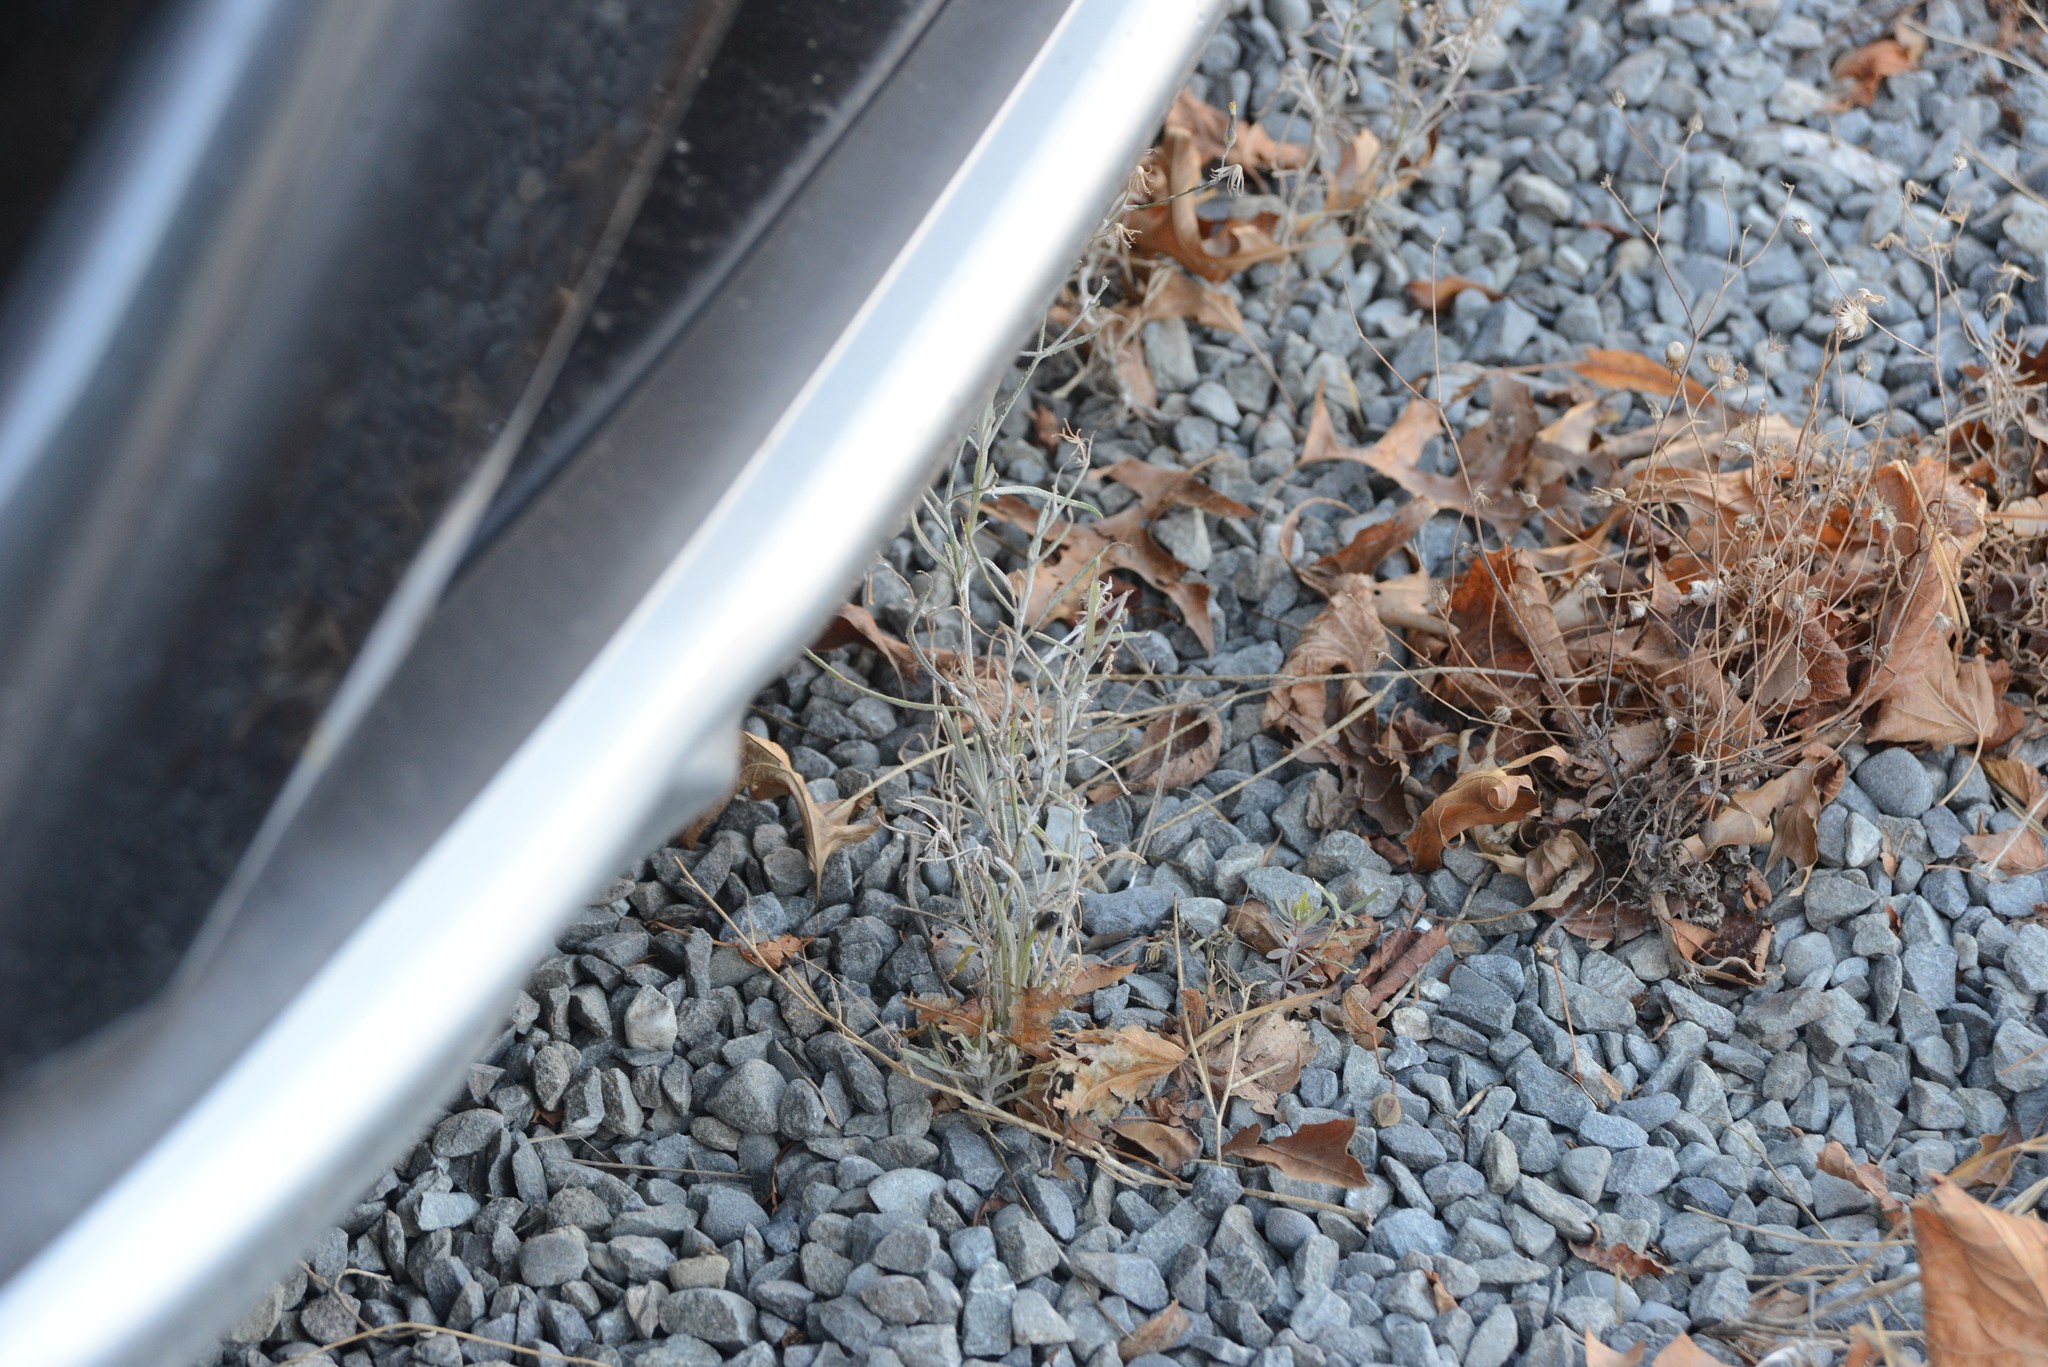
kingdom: Plantae
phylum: Tracheophyta
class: Magnoliopsida
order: Asterales
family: Asteraceae
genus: Senecio
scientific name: Senecio quadridentatus
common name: Cotton fireweed
